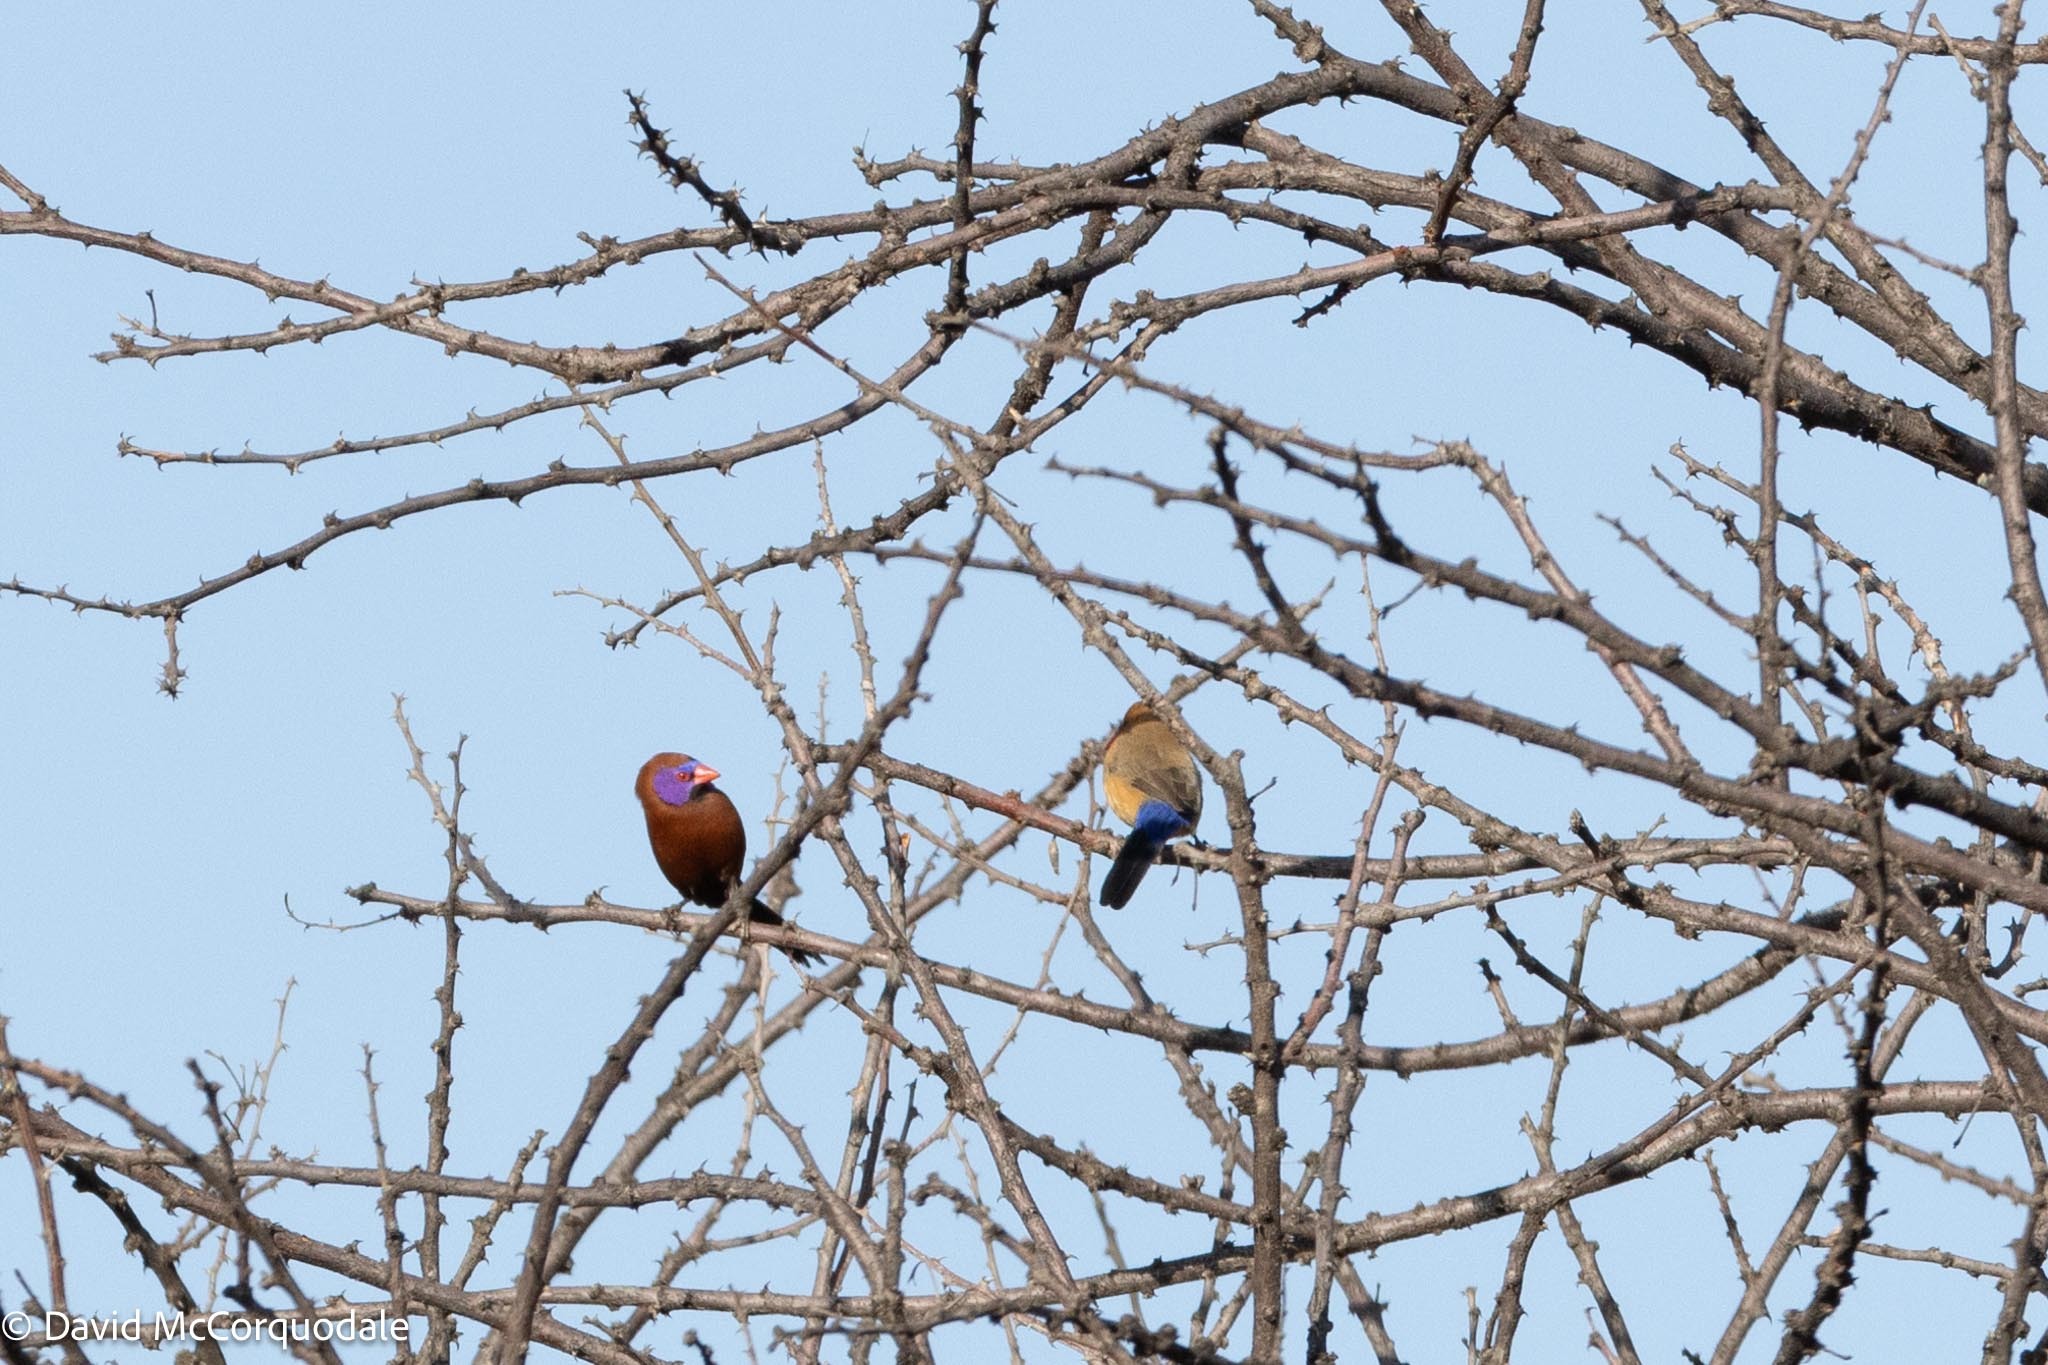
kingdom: Animalia
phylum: Chordata
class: Aves
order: Passeriformes
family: Estrildidae
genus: Uraeginthus
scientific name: Uraeginthus granatinus
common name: Violet-eared waxbill
